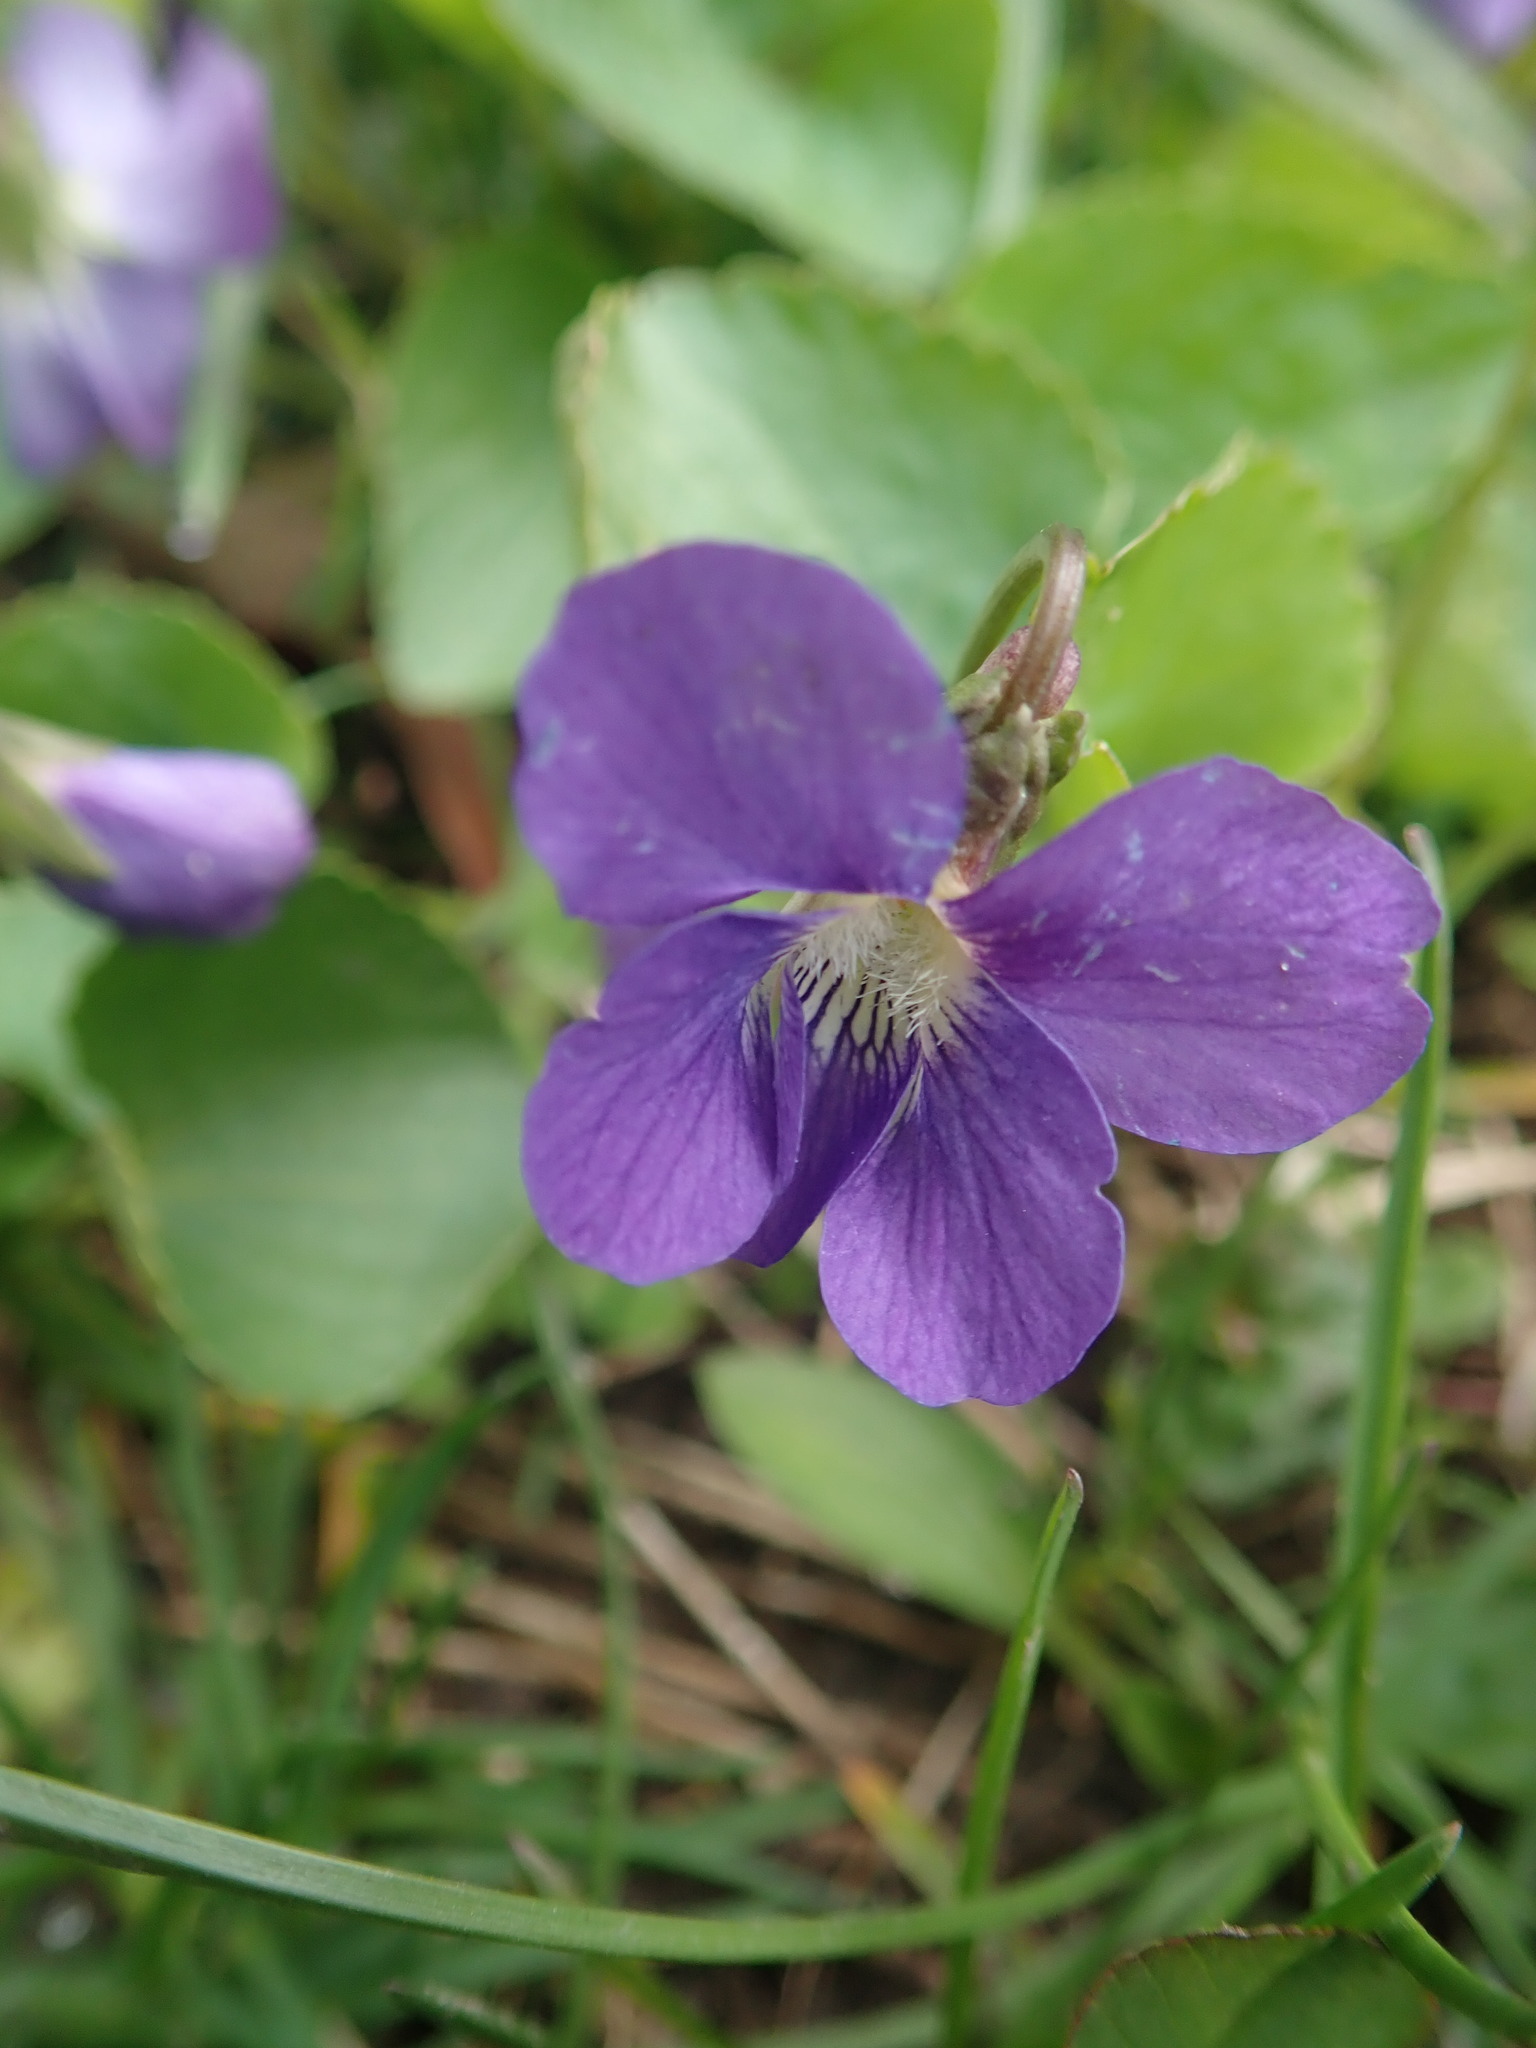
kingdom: Plantae
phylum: Tracheophyta
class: Magnoliopsida
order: Malpighiales
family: Violaceae
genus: Viola
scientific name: Viola sororia
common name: Dooryard violet
